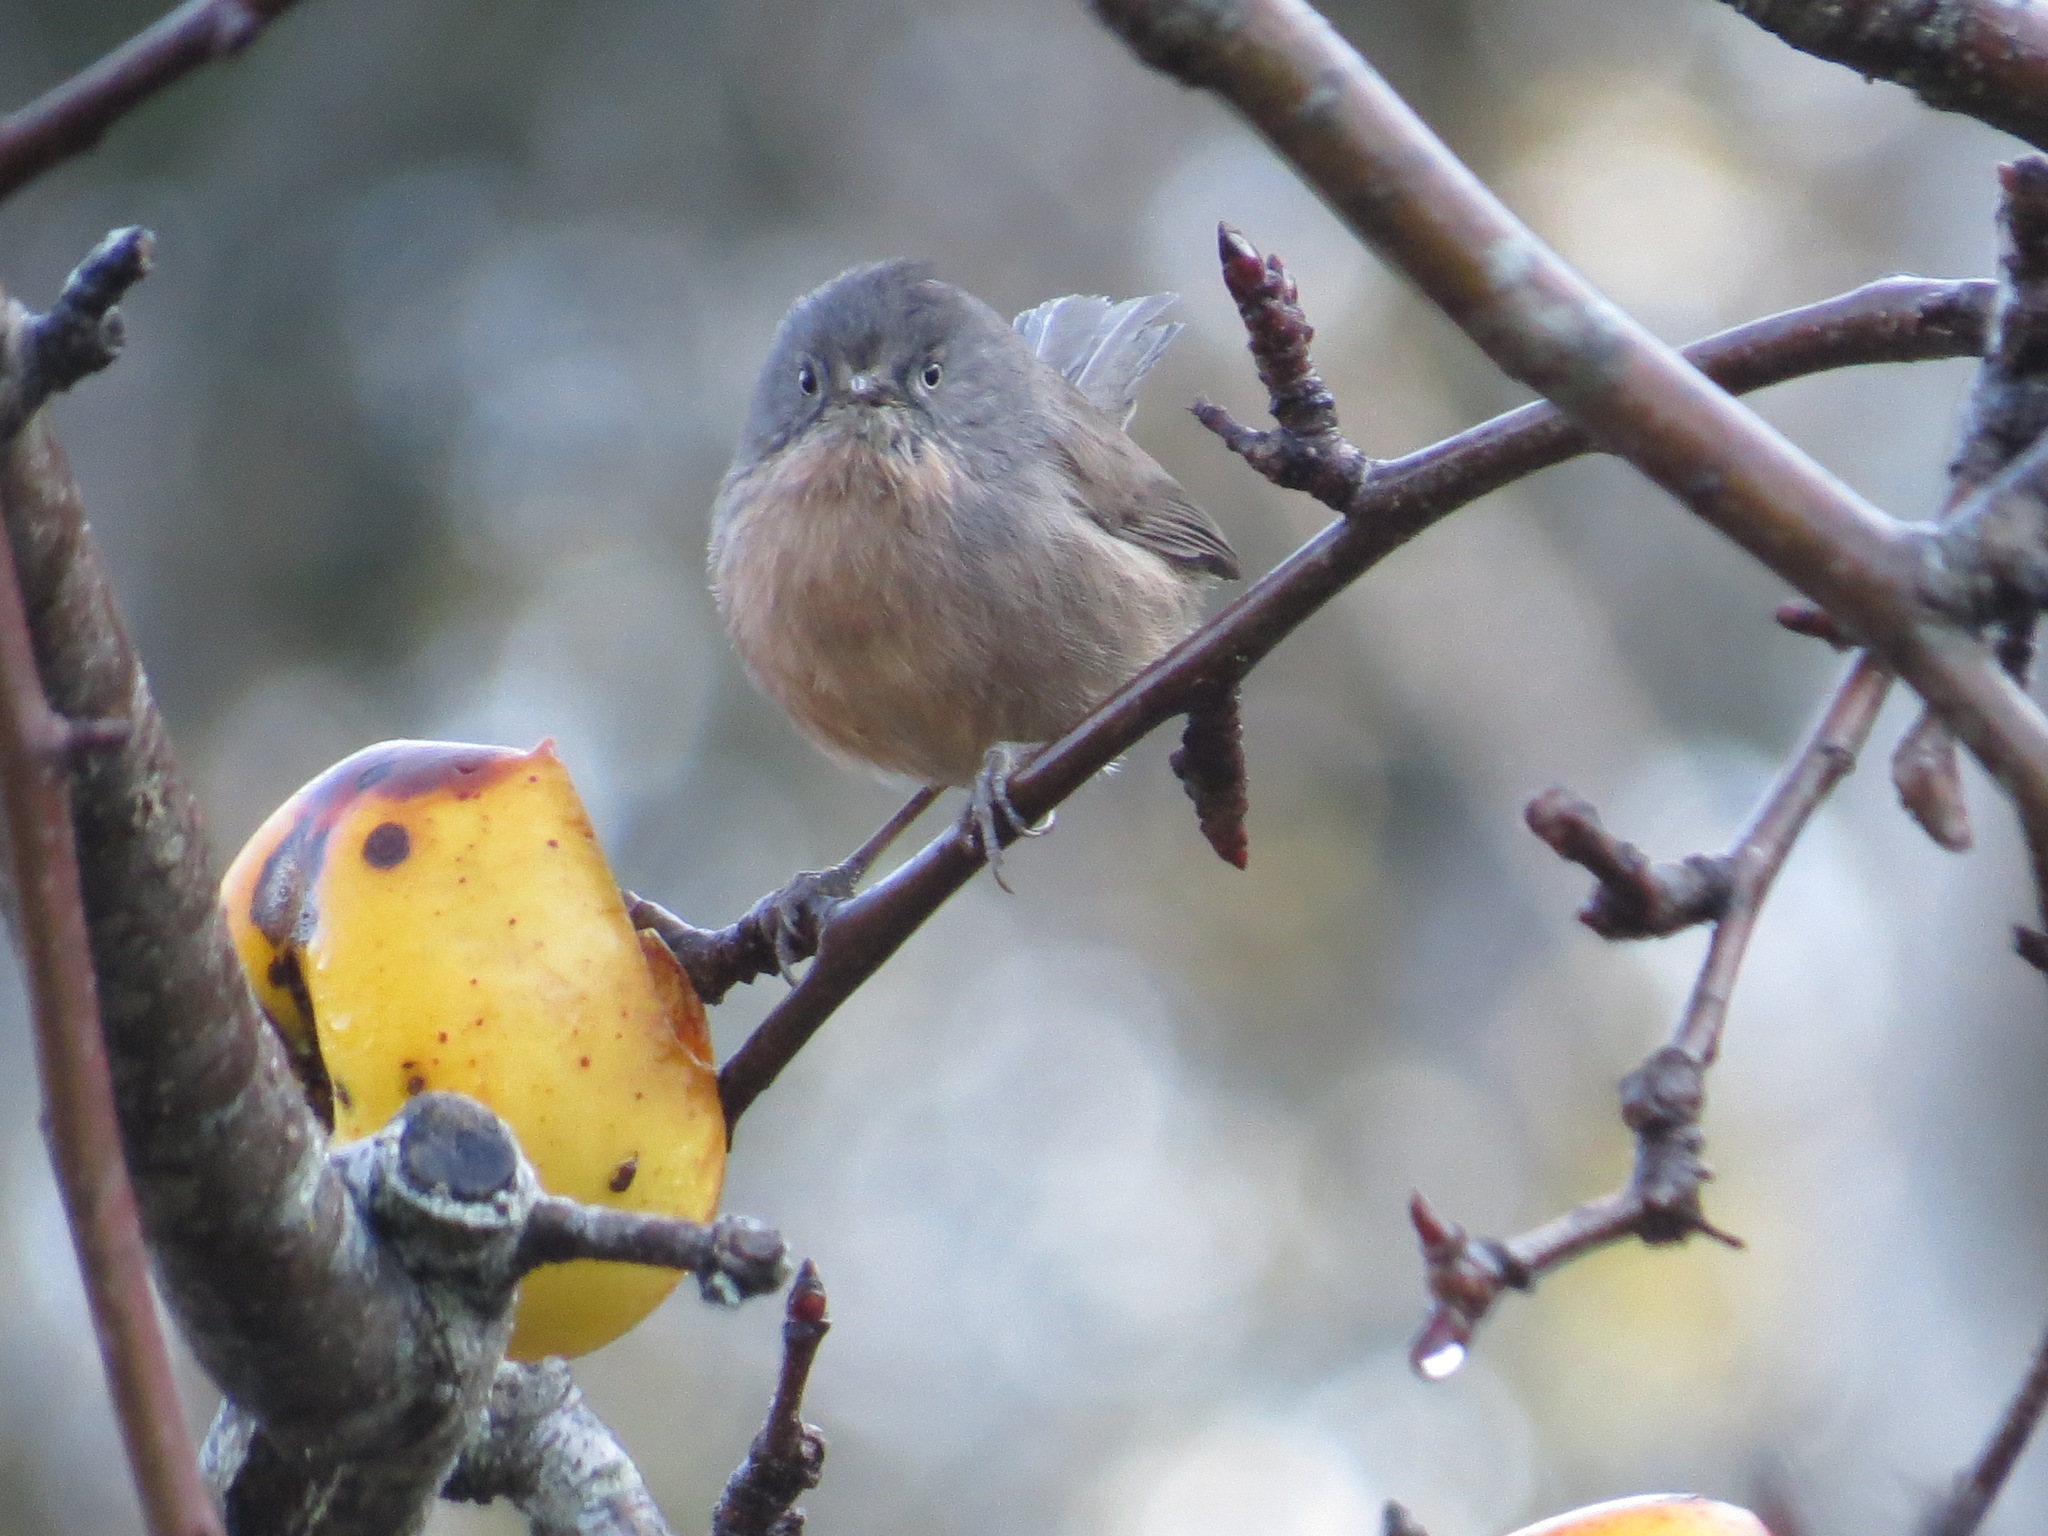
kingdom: Animalia
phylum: Chordata
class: Aves
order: Passeriformes
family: Sylviidae
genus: Chamaea
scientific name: Chamaea fasciata
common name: Wrentit
